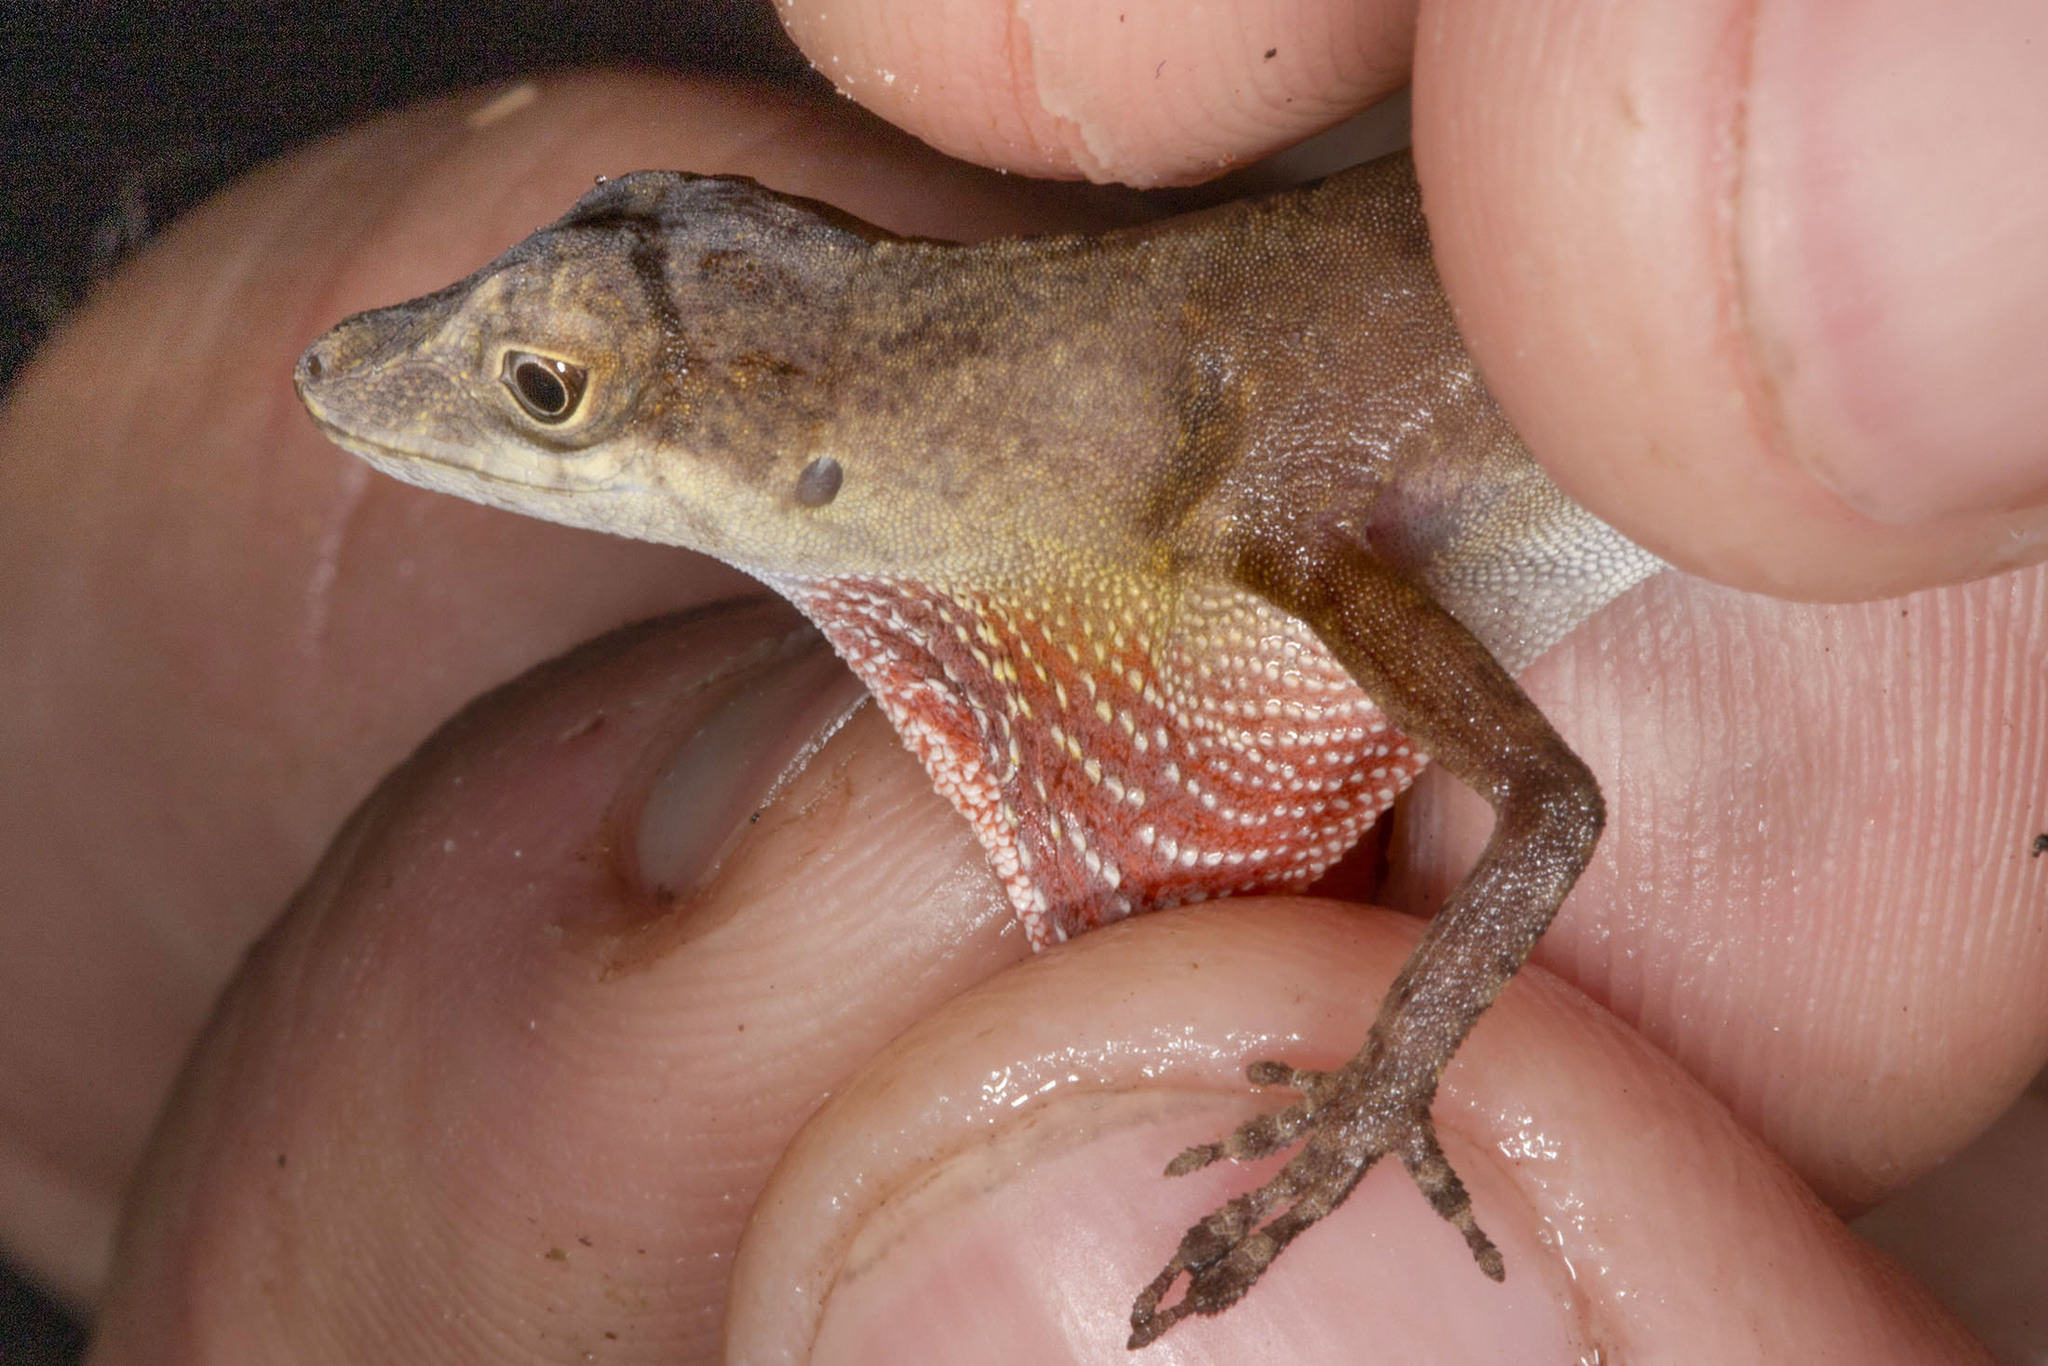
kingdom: Animalia
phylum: Chordata
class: Squamata
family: Dactyloidae
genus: Anolis
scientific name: Anolis fuscoauratus
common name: Brown-eared anole
